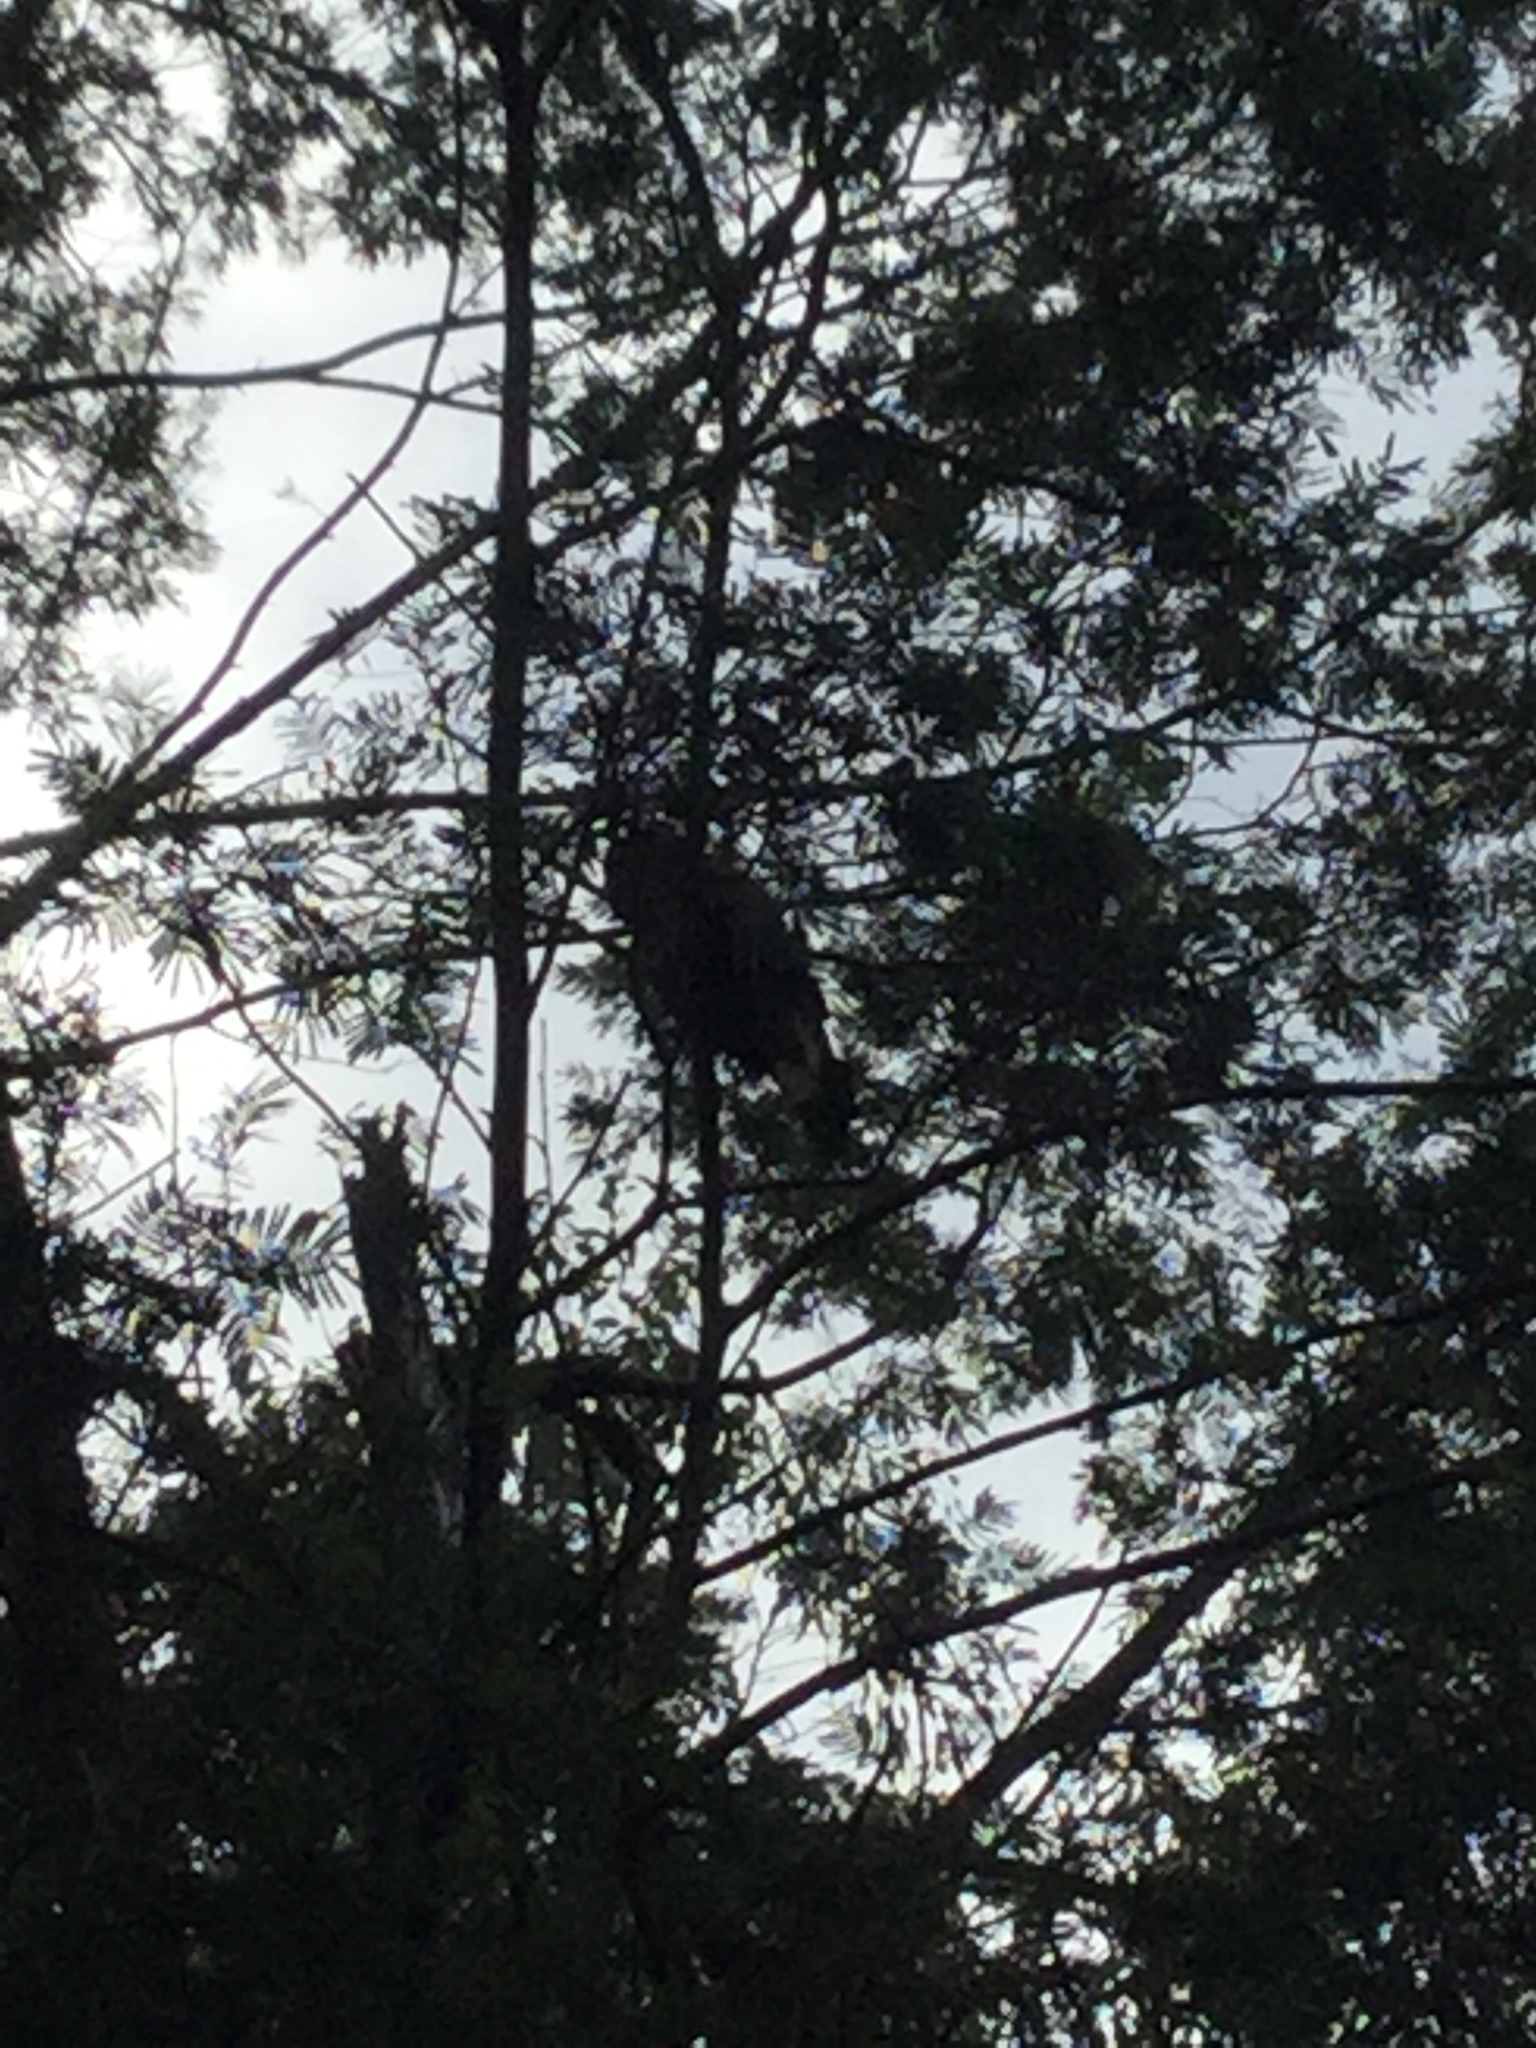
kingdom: Animalia
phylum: Chordata
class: Aves
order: Psittaciformes
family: Cacatuidae
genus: Zanda
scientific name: Zanda funerea
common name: Yellow-tailed black-cockatoo
